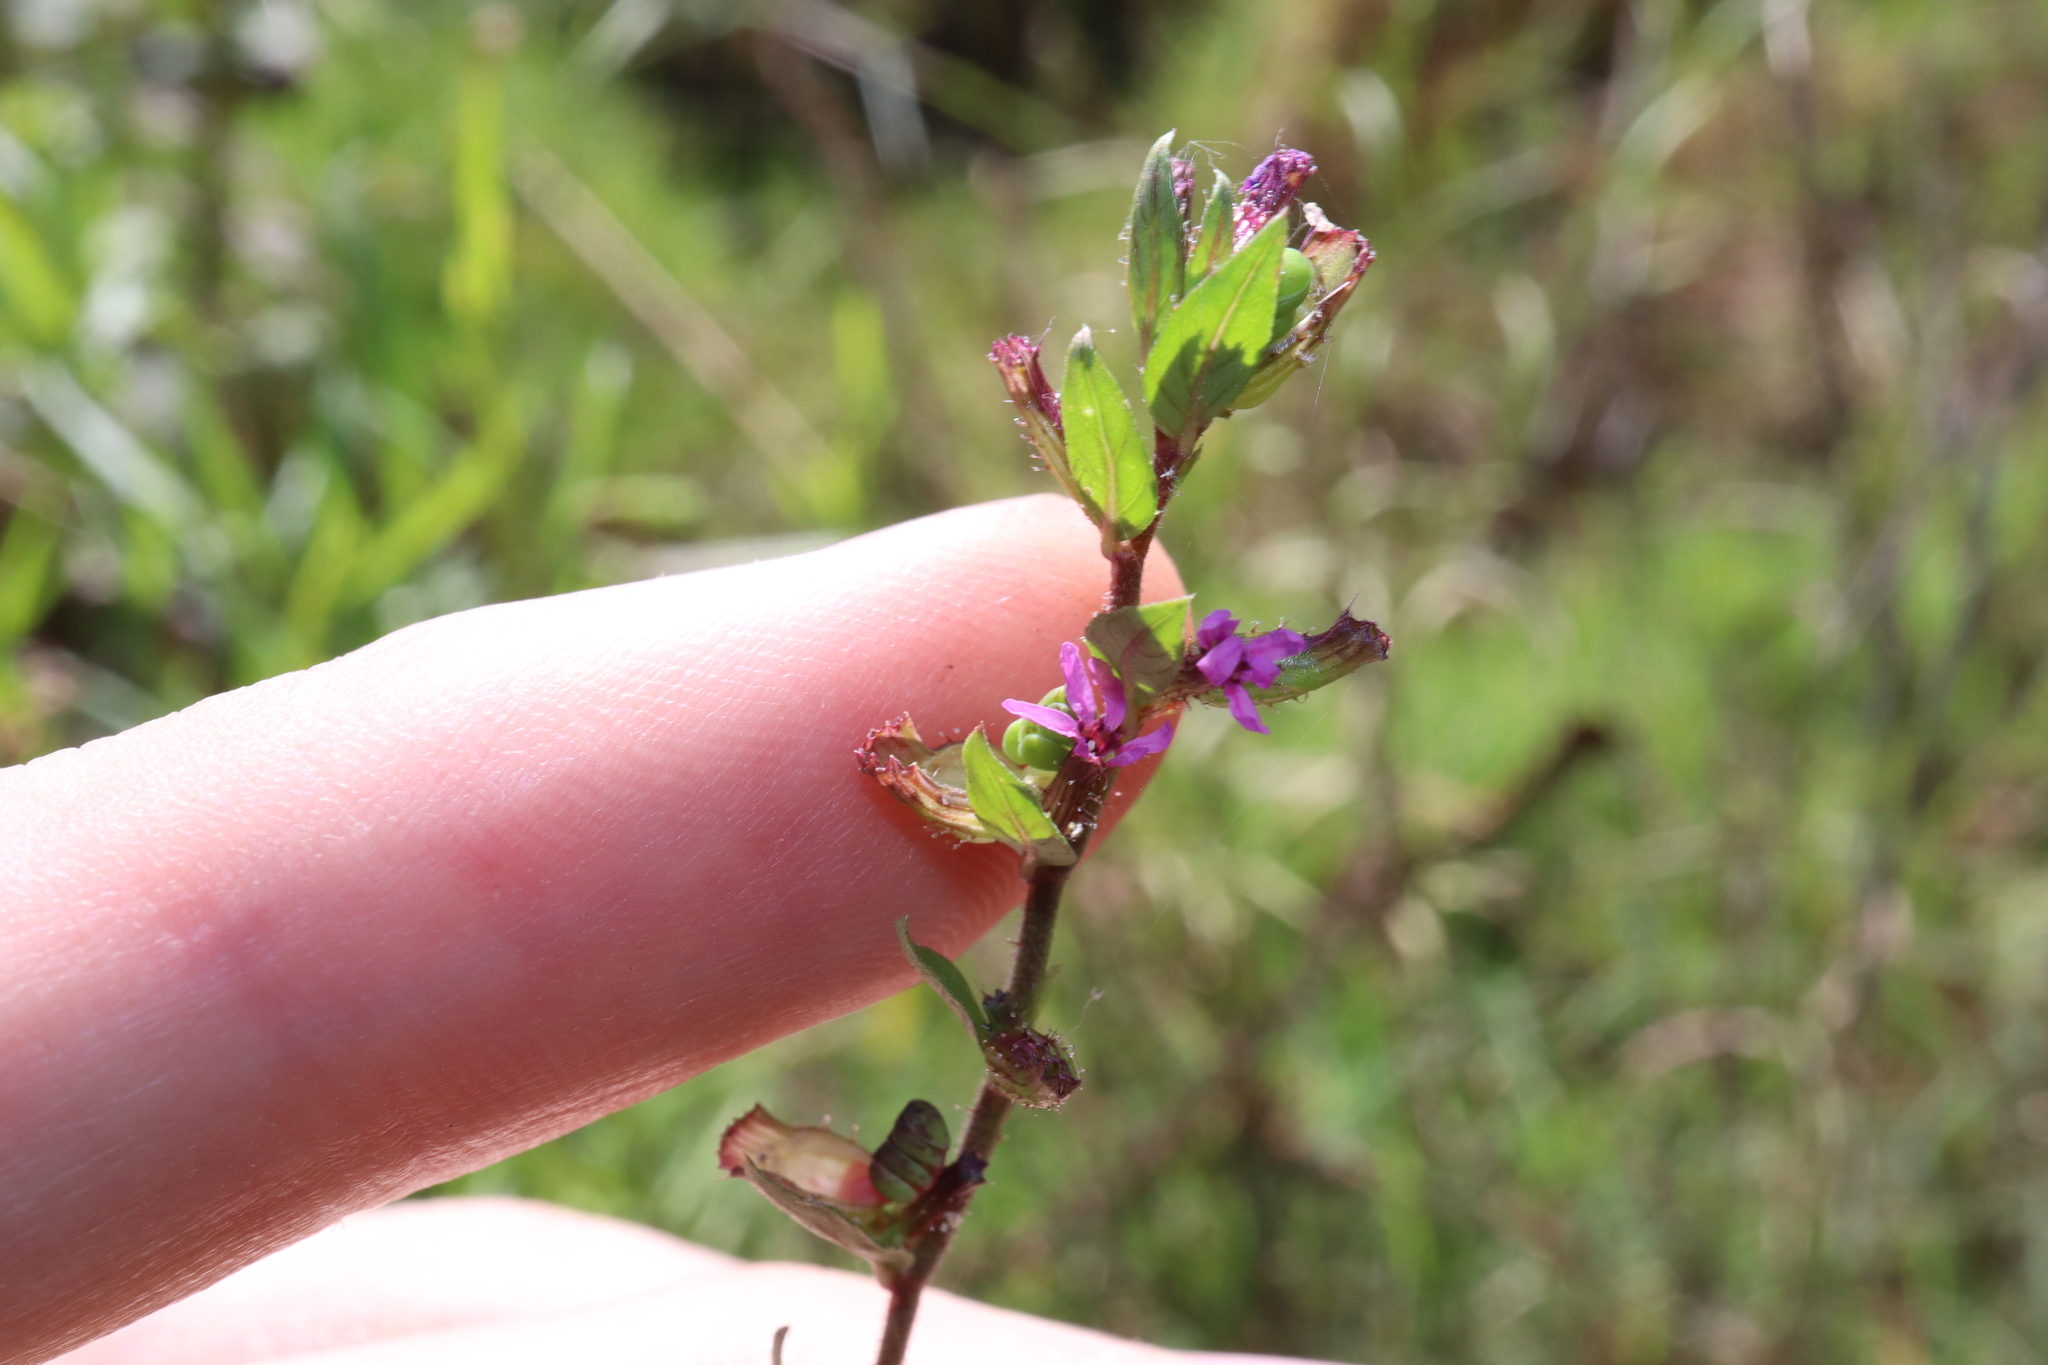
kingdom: Plantae
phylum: Tracheophyta
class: Magnoliopsida
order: Myrtales
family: Lythraceae
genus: Cuphea
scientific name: Cuphea carthagenensis
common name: Colombian waxweed
